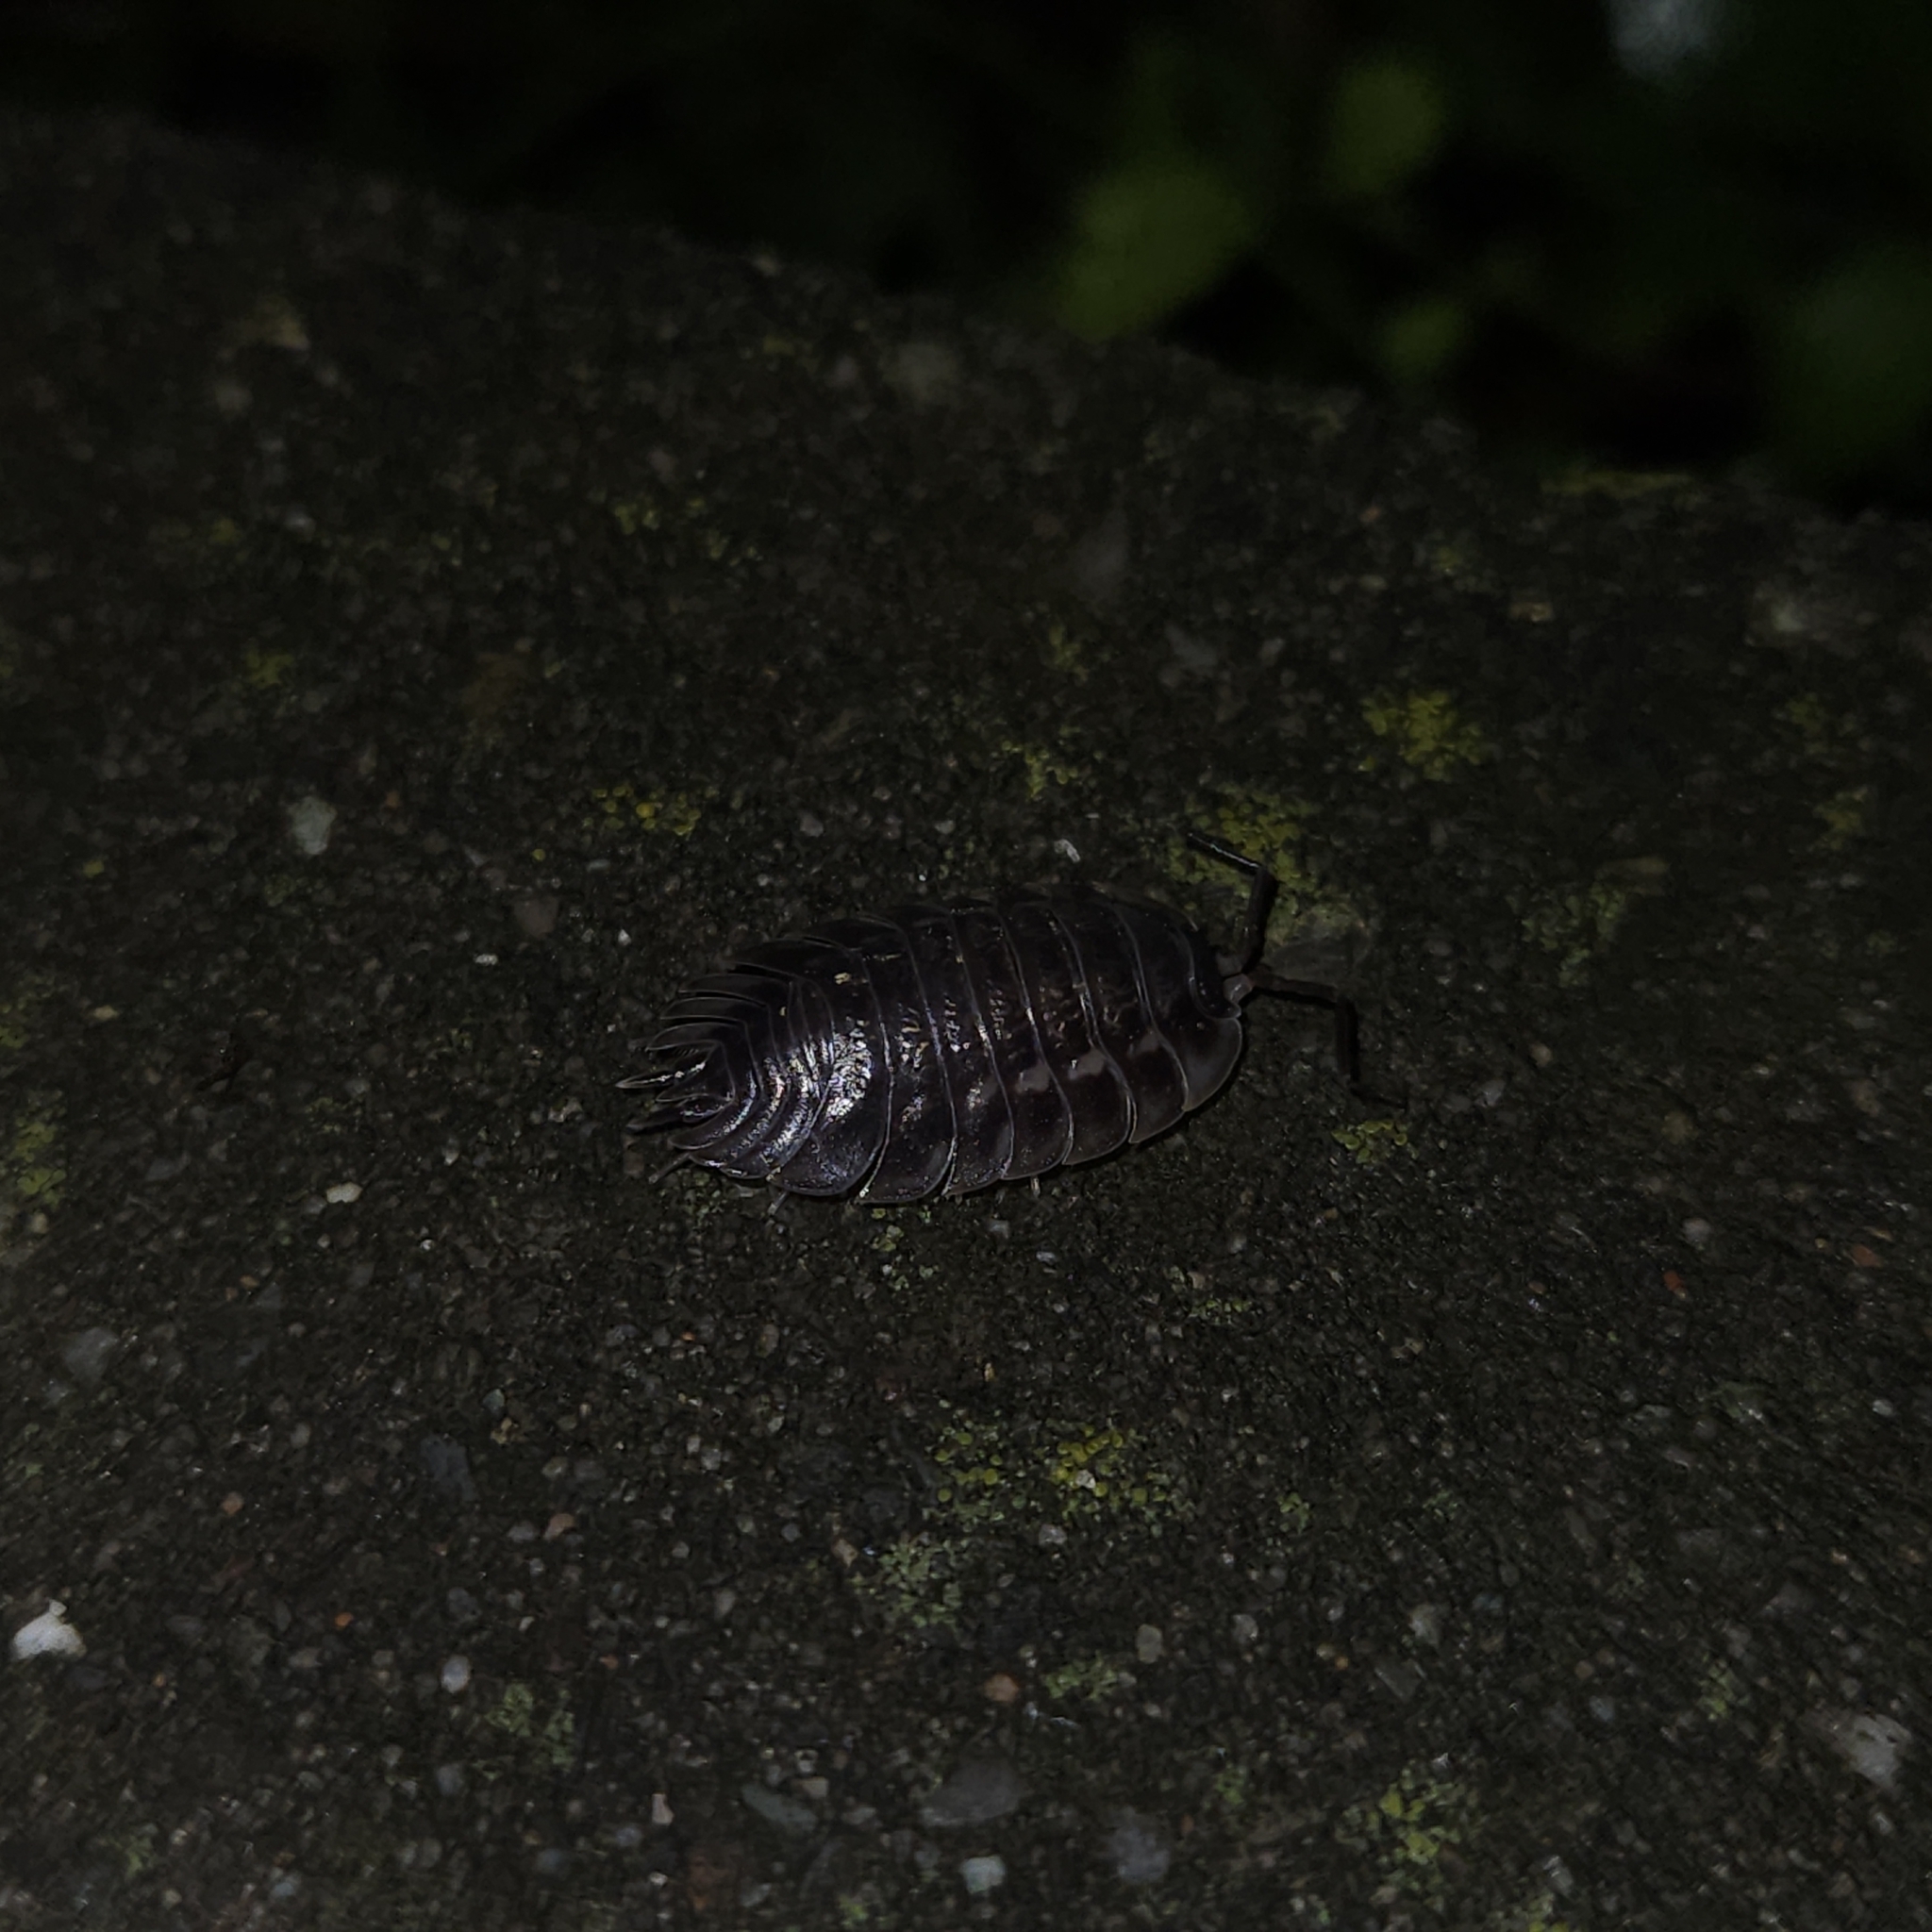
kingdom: Animalia
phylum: Arthropoda
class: Malacostraca
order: Isopoda
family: Oniscidae
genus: Oniscus
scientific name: Oniscus asellus
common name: Common shiny woodlouse
